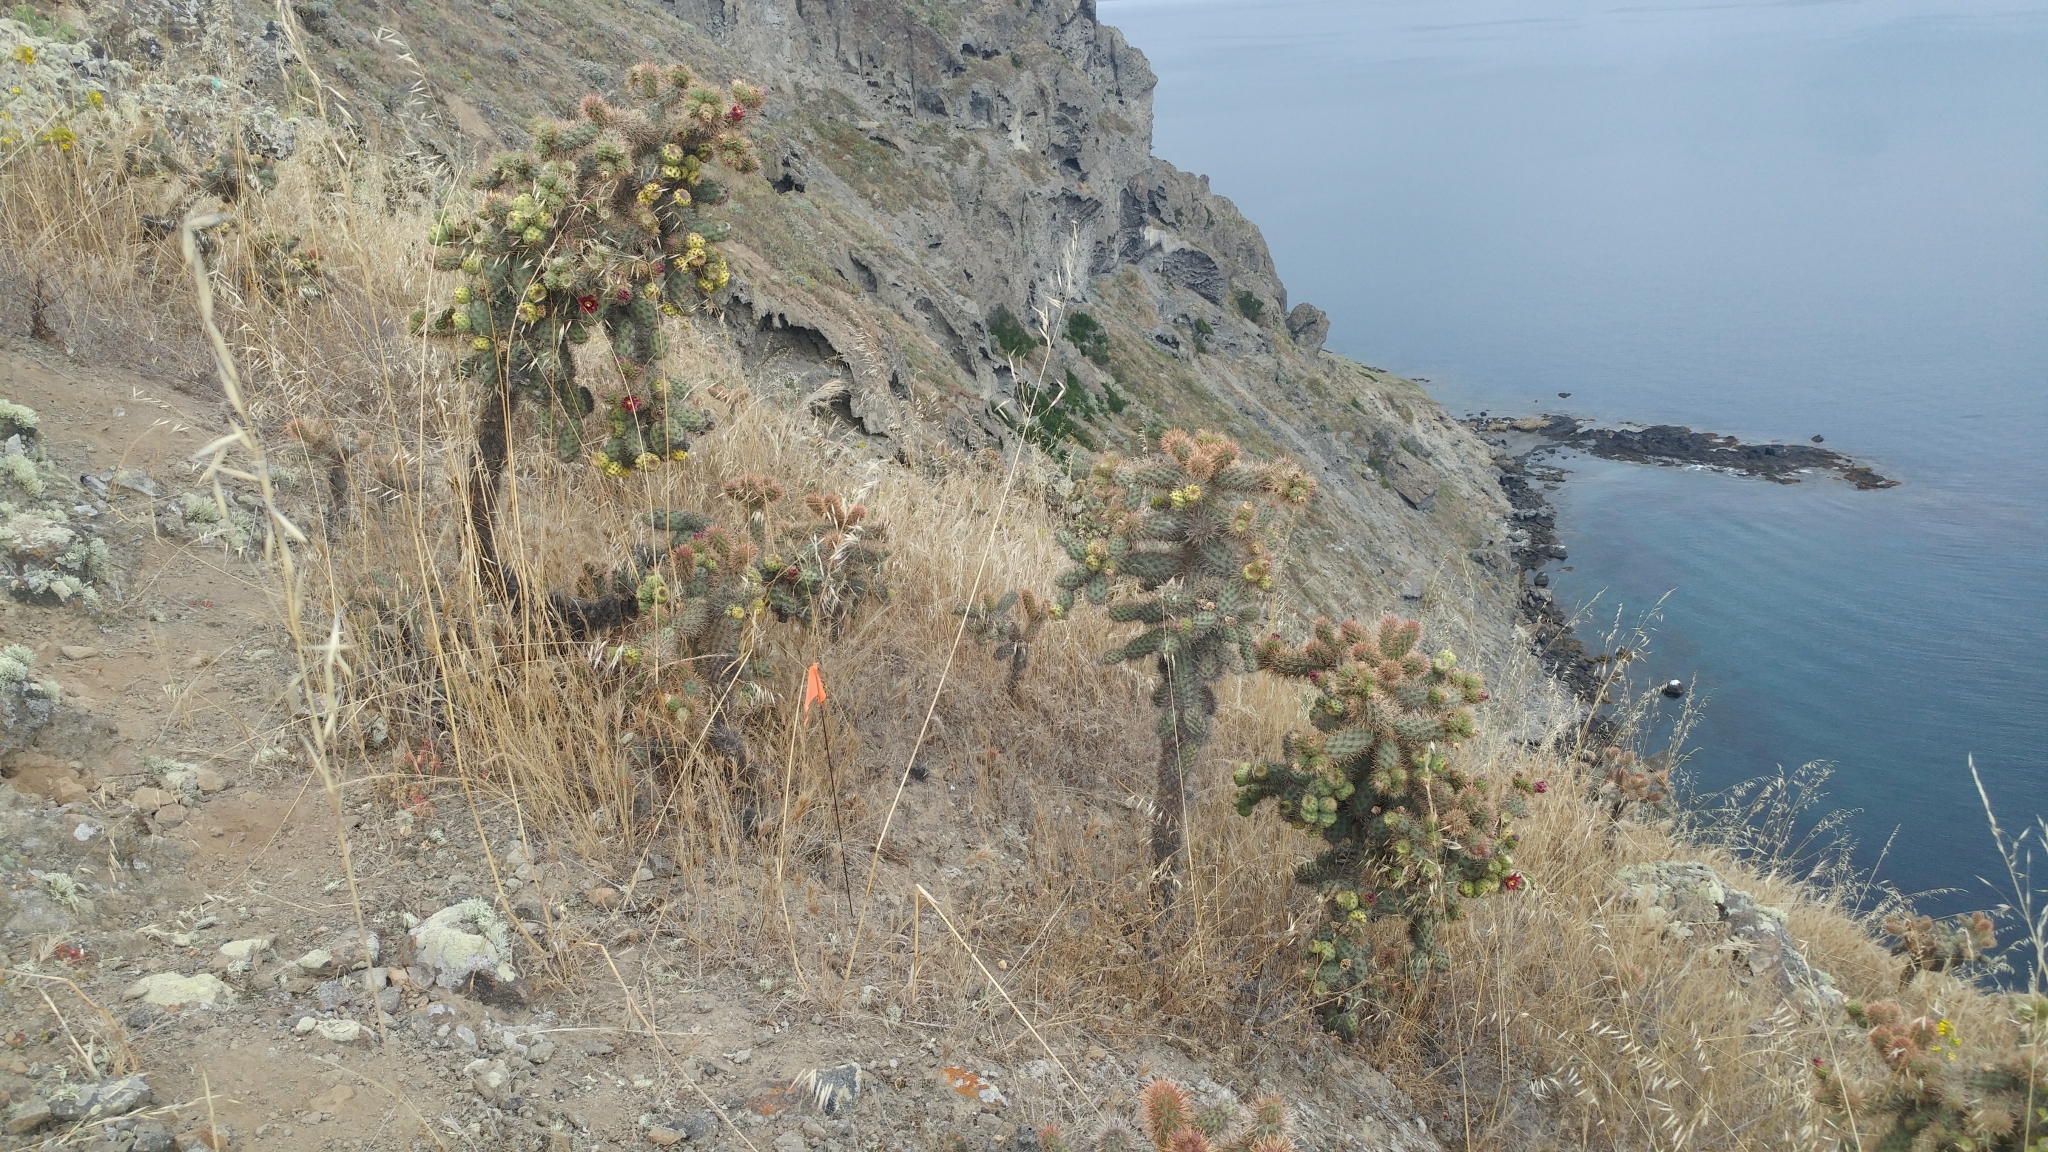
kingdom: Plantae
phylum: Tracheophyta
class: Magnoliopsida
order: Caryophyllales
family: Cactaceae
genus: Cylindropuntia
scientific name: Cylindropuntia prolifera
